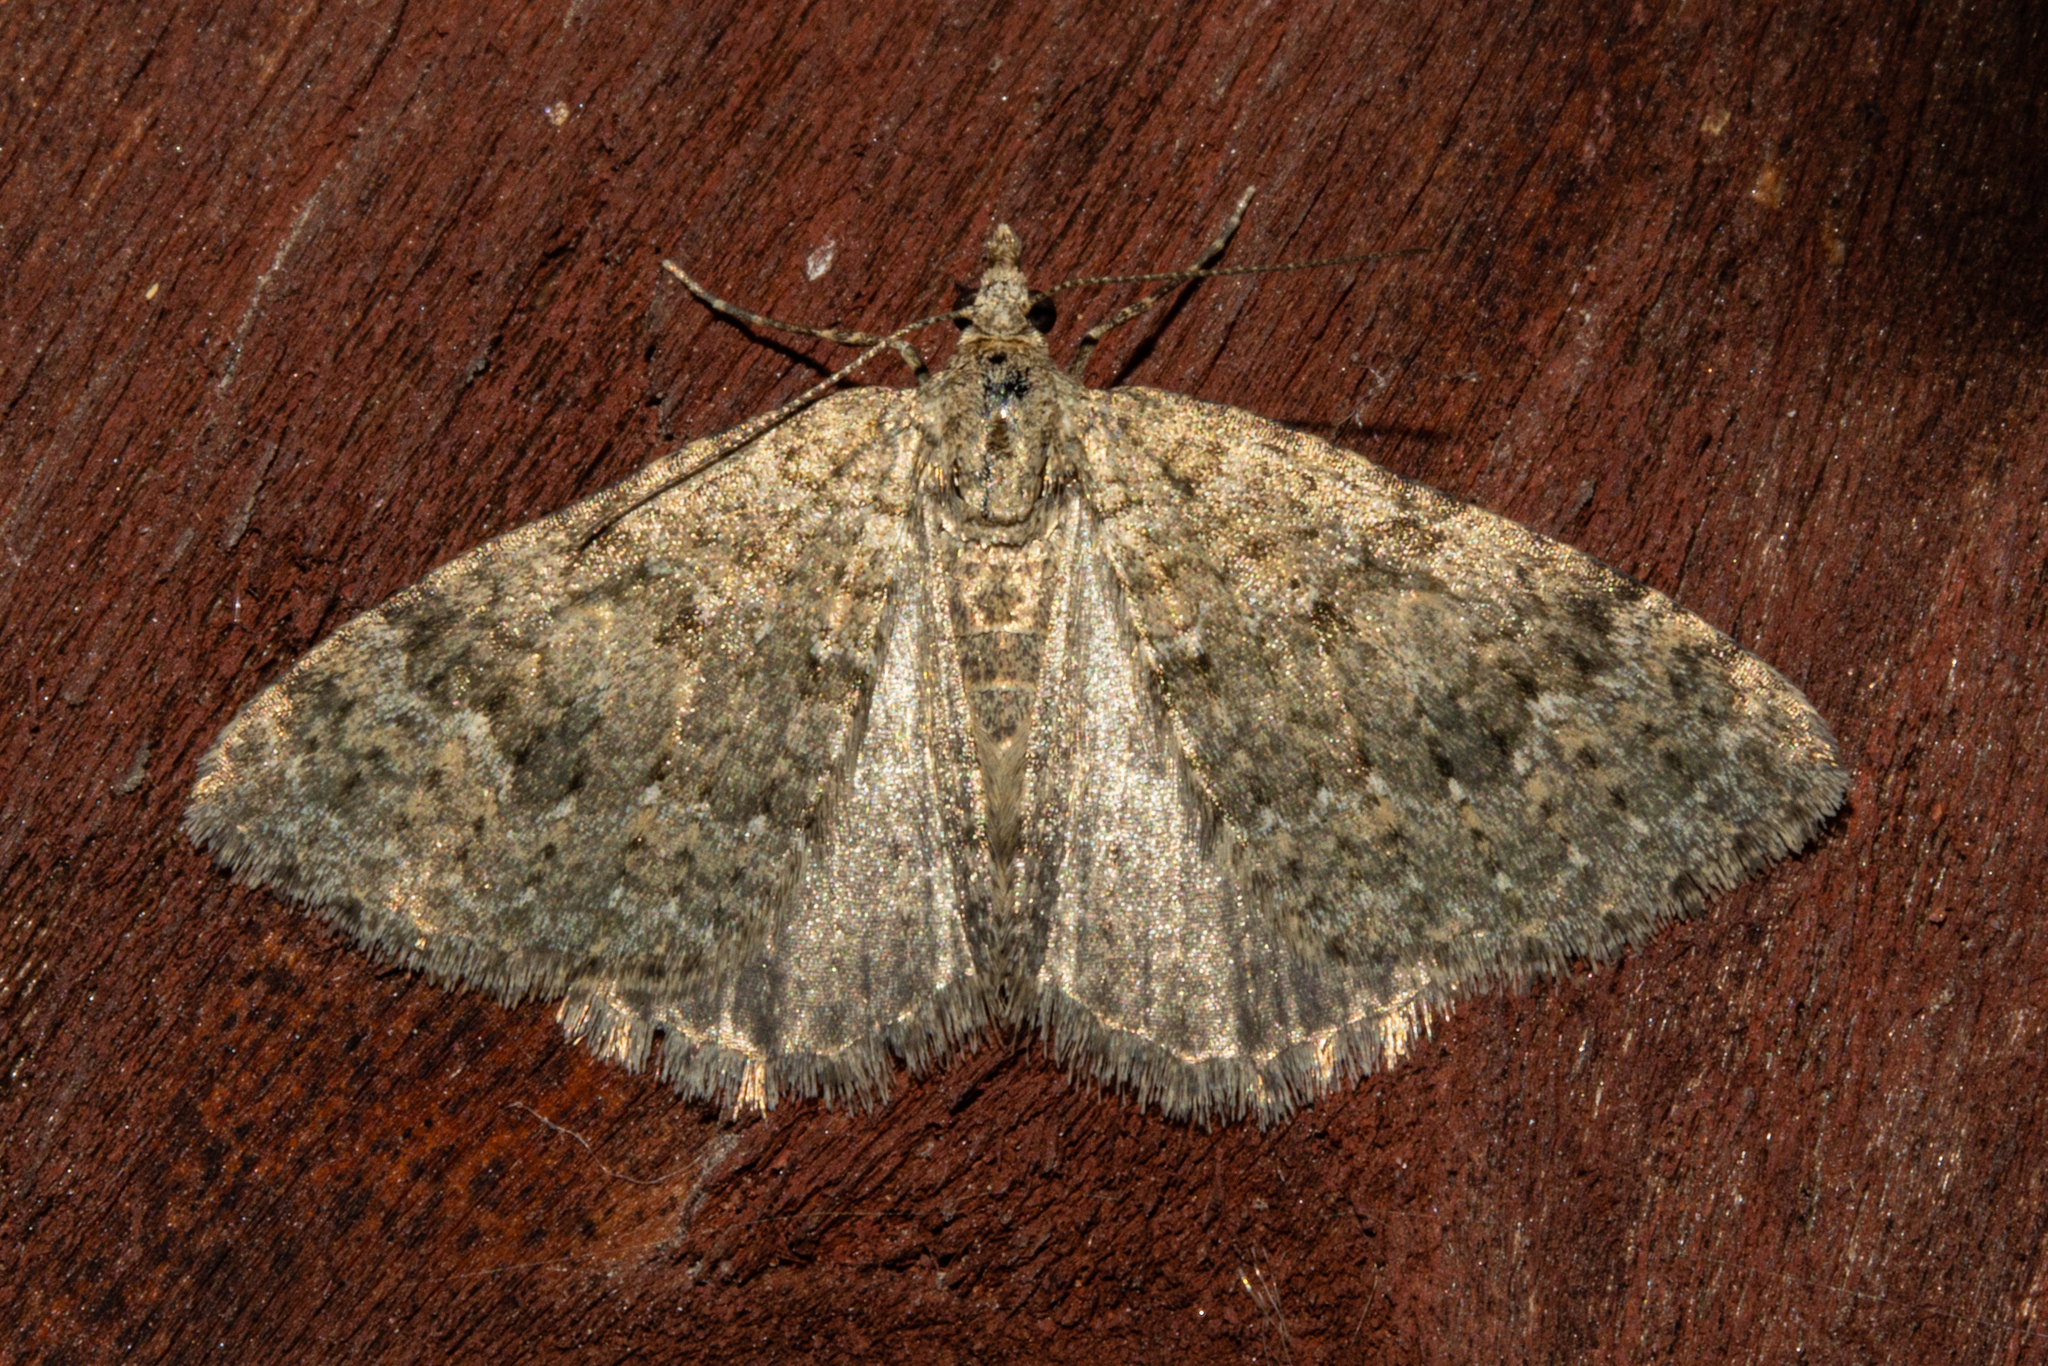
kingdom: Animalia
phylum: Arthropoda
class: Insecta
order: Lepidoptera
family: Geometridae
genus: Helastia
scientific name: Helastia corcularia
